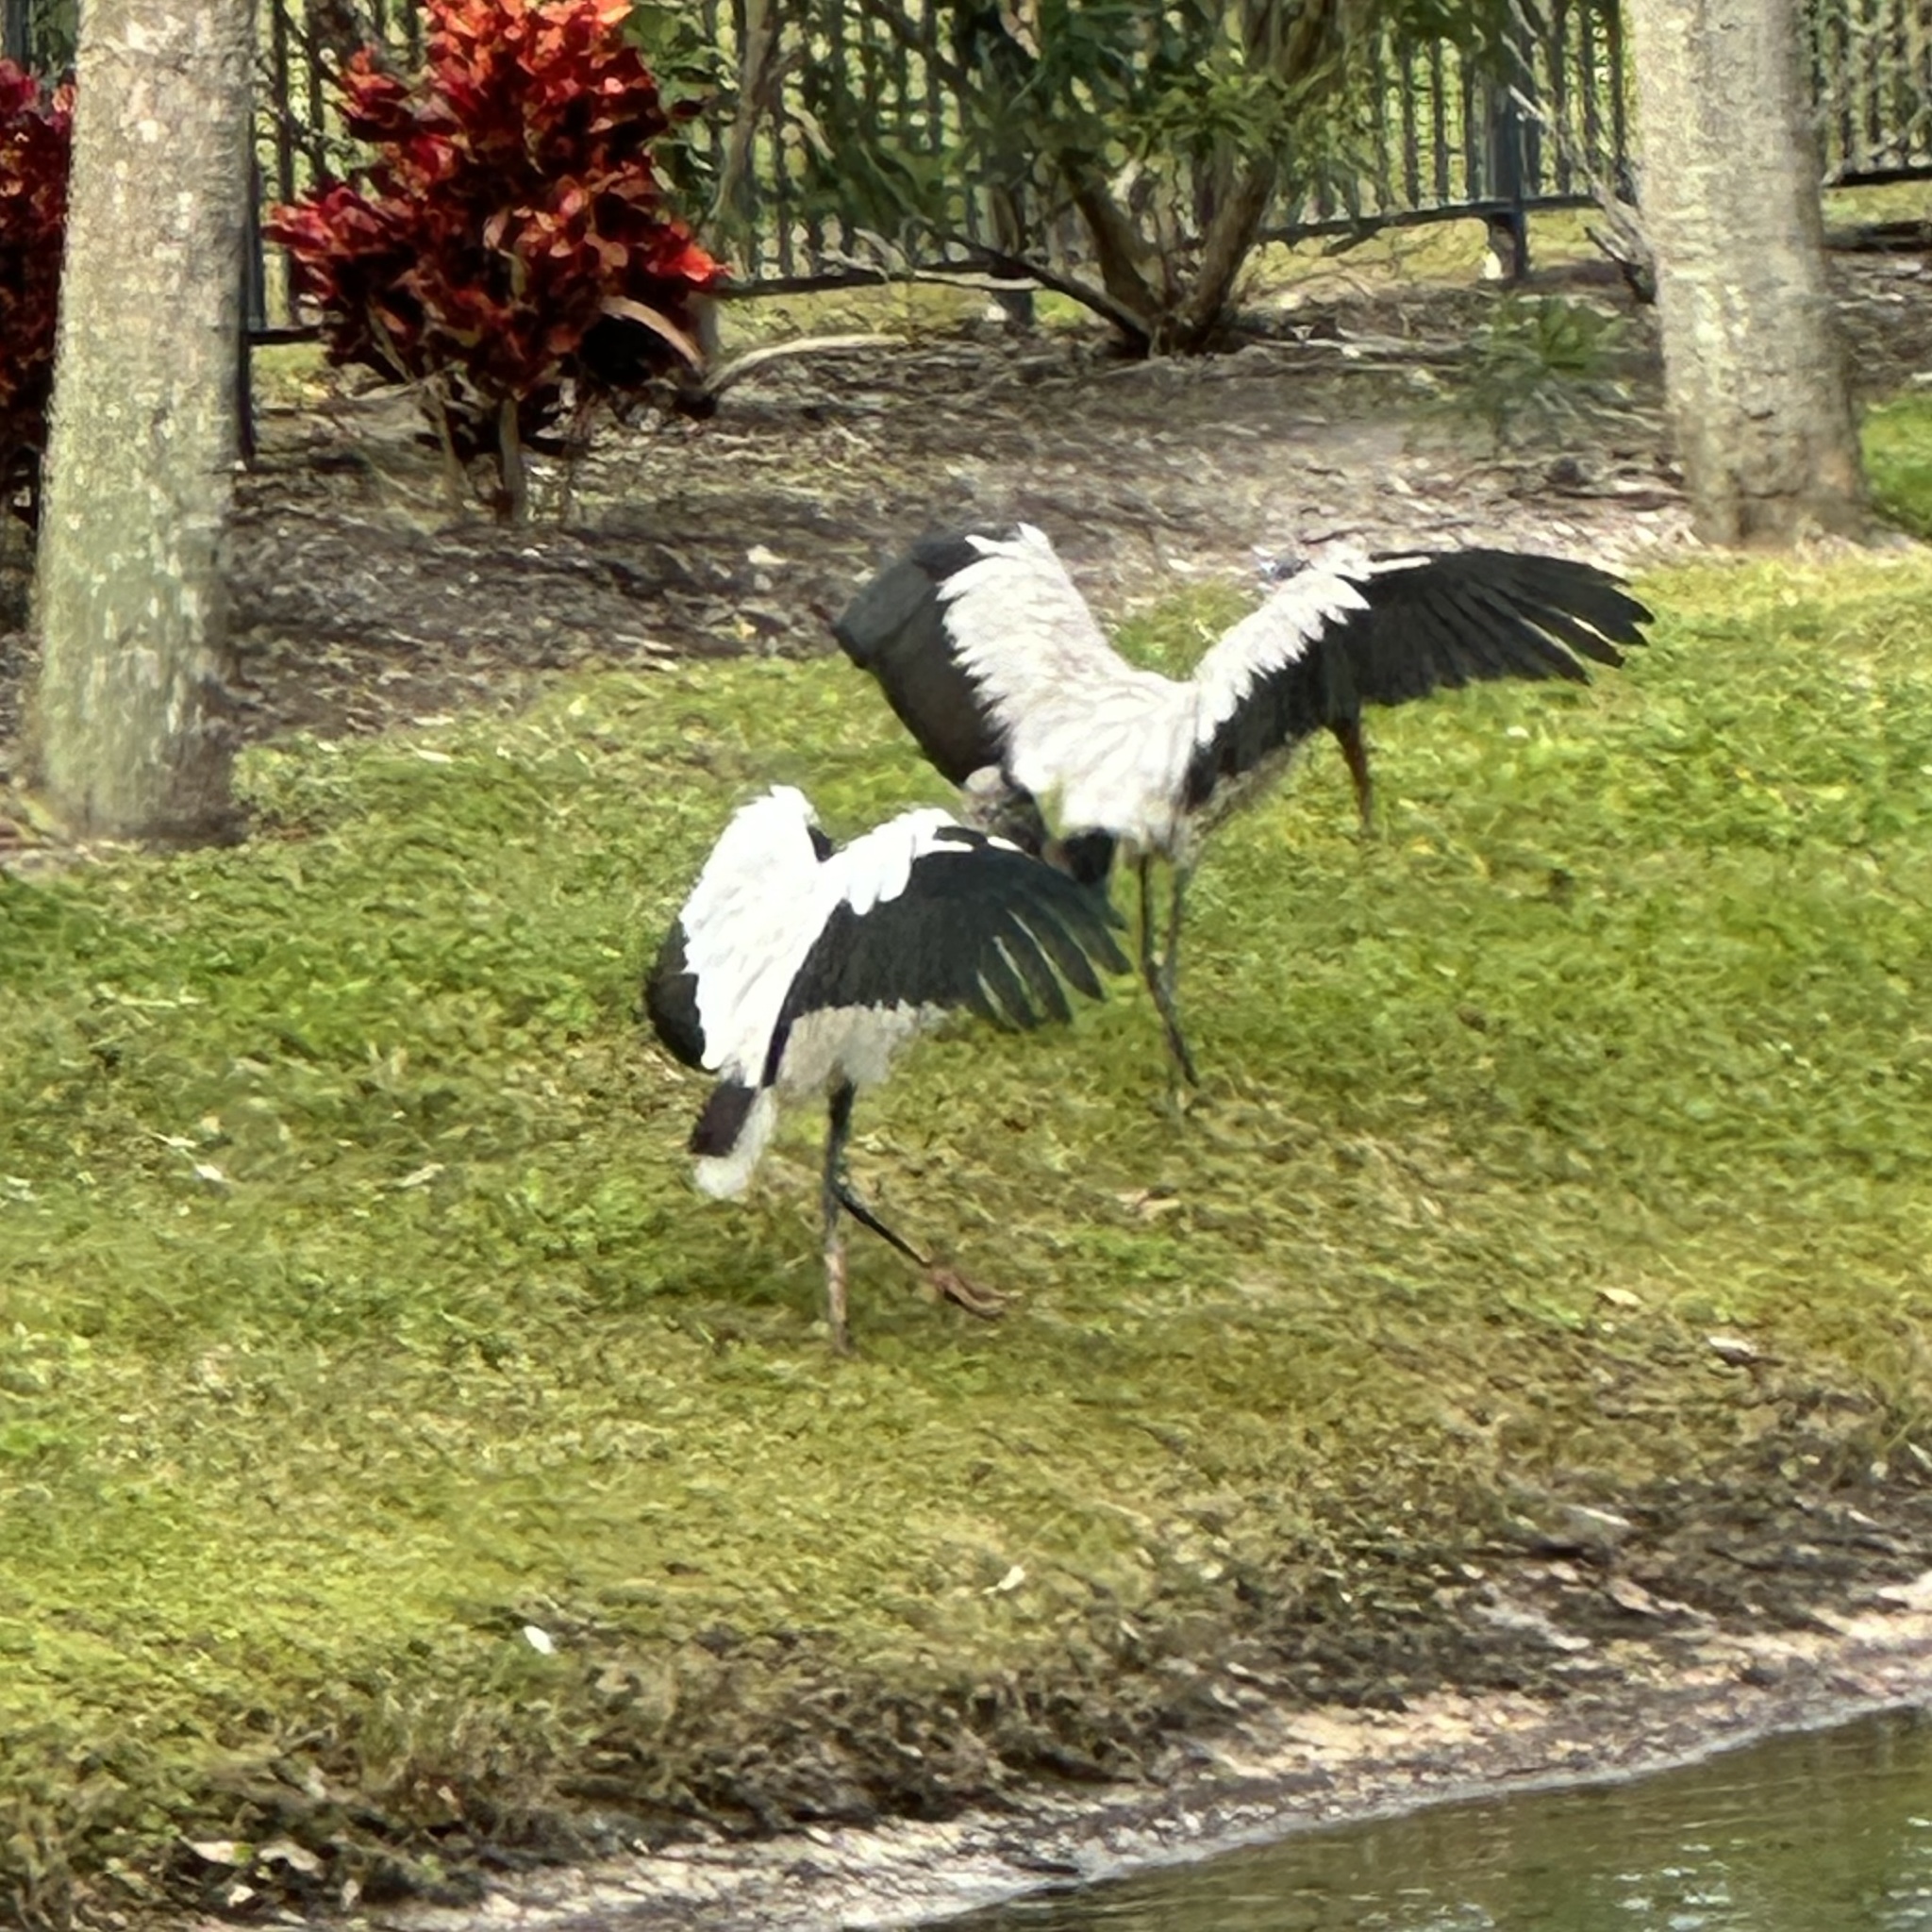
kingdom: Animalia
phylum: Chordata
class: Aves
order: Ciconiiformes
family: Ciconiidae
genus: Mycteria
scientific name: Mycteria americana
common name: Wood stork
